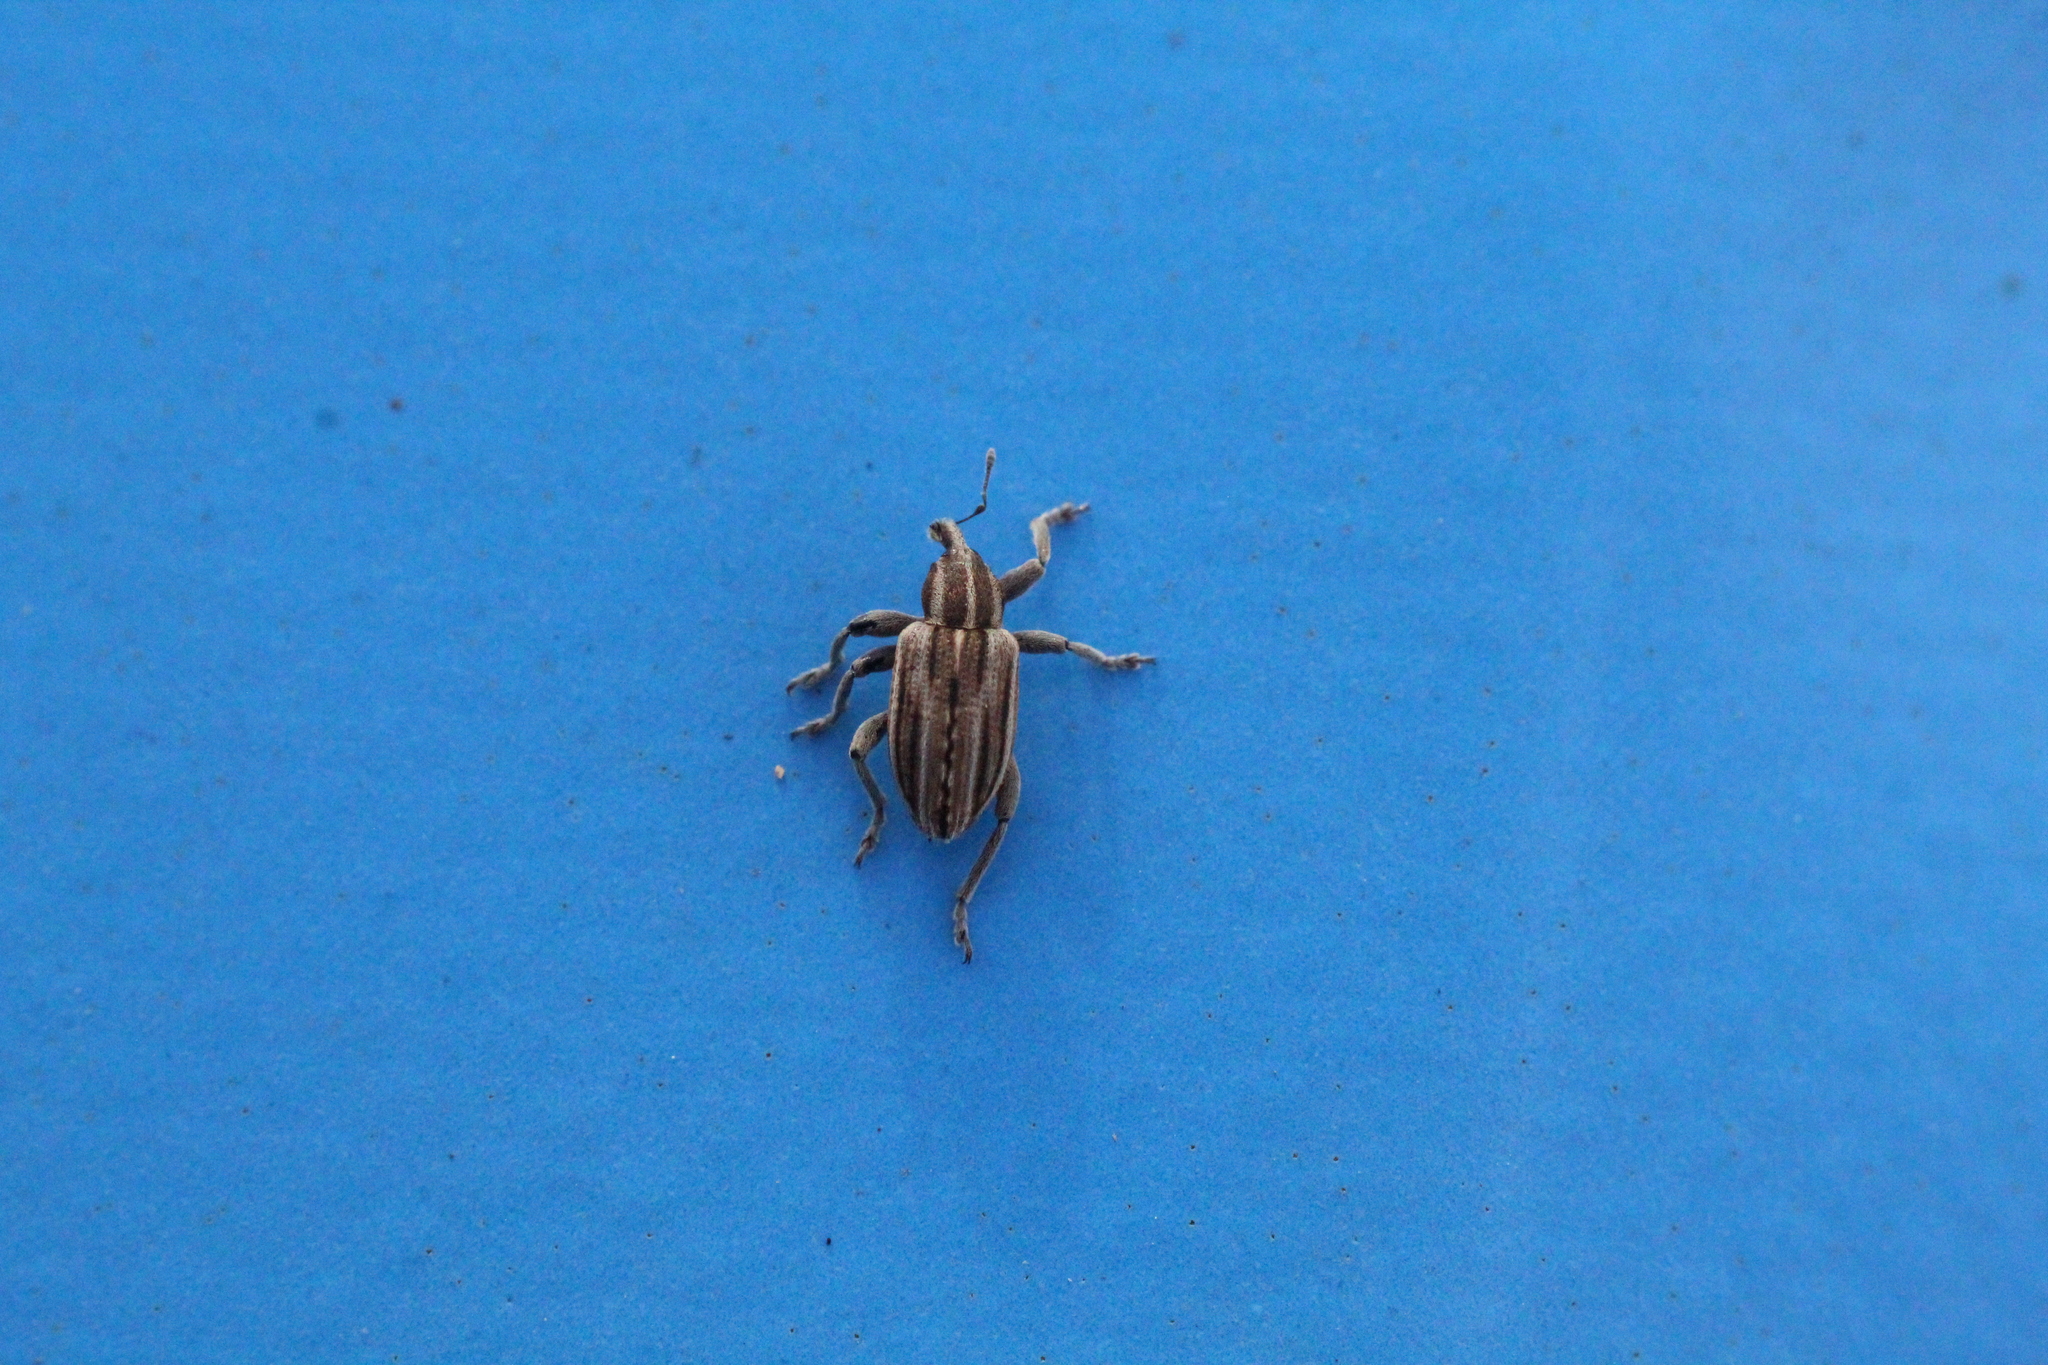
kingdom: Animalia
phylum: Arthropoda
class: Insecta
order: Coleoptera
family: Curculionidae
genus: Hypera
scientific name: Hypera arator
